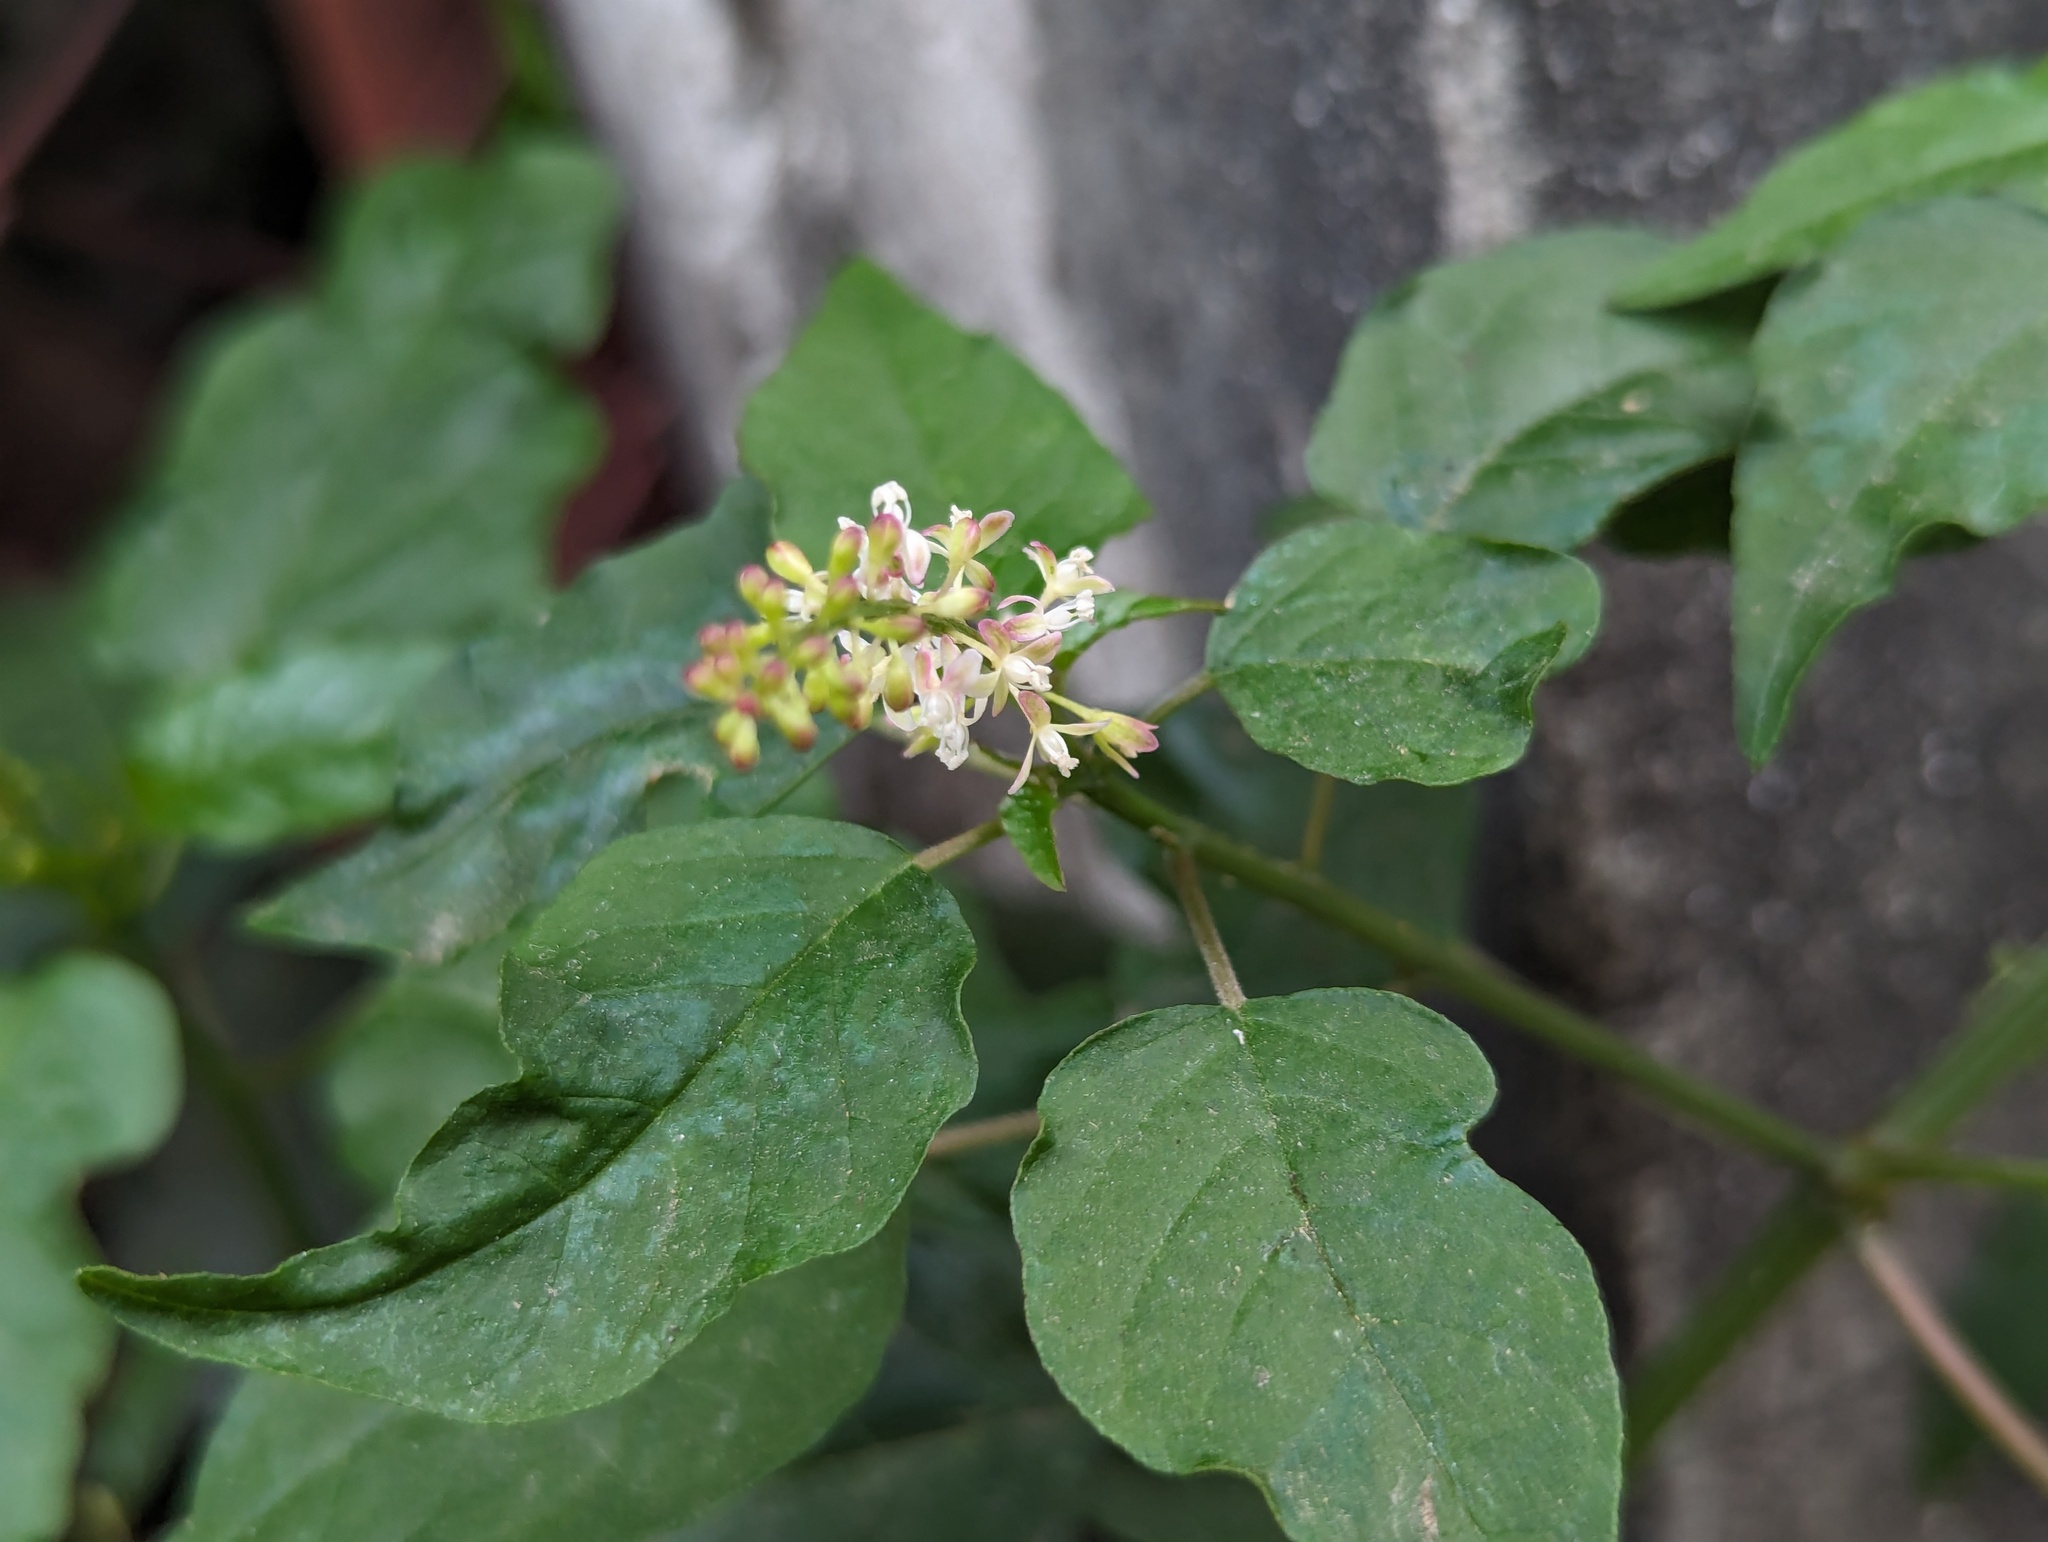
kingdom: Plantae
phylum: Tracheophyta
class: Magnoliopsida
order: Caryophyllales
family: Phytolaccaceae
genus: Rivina
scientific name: Rivina humilis
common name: Rougeplant
